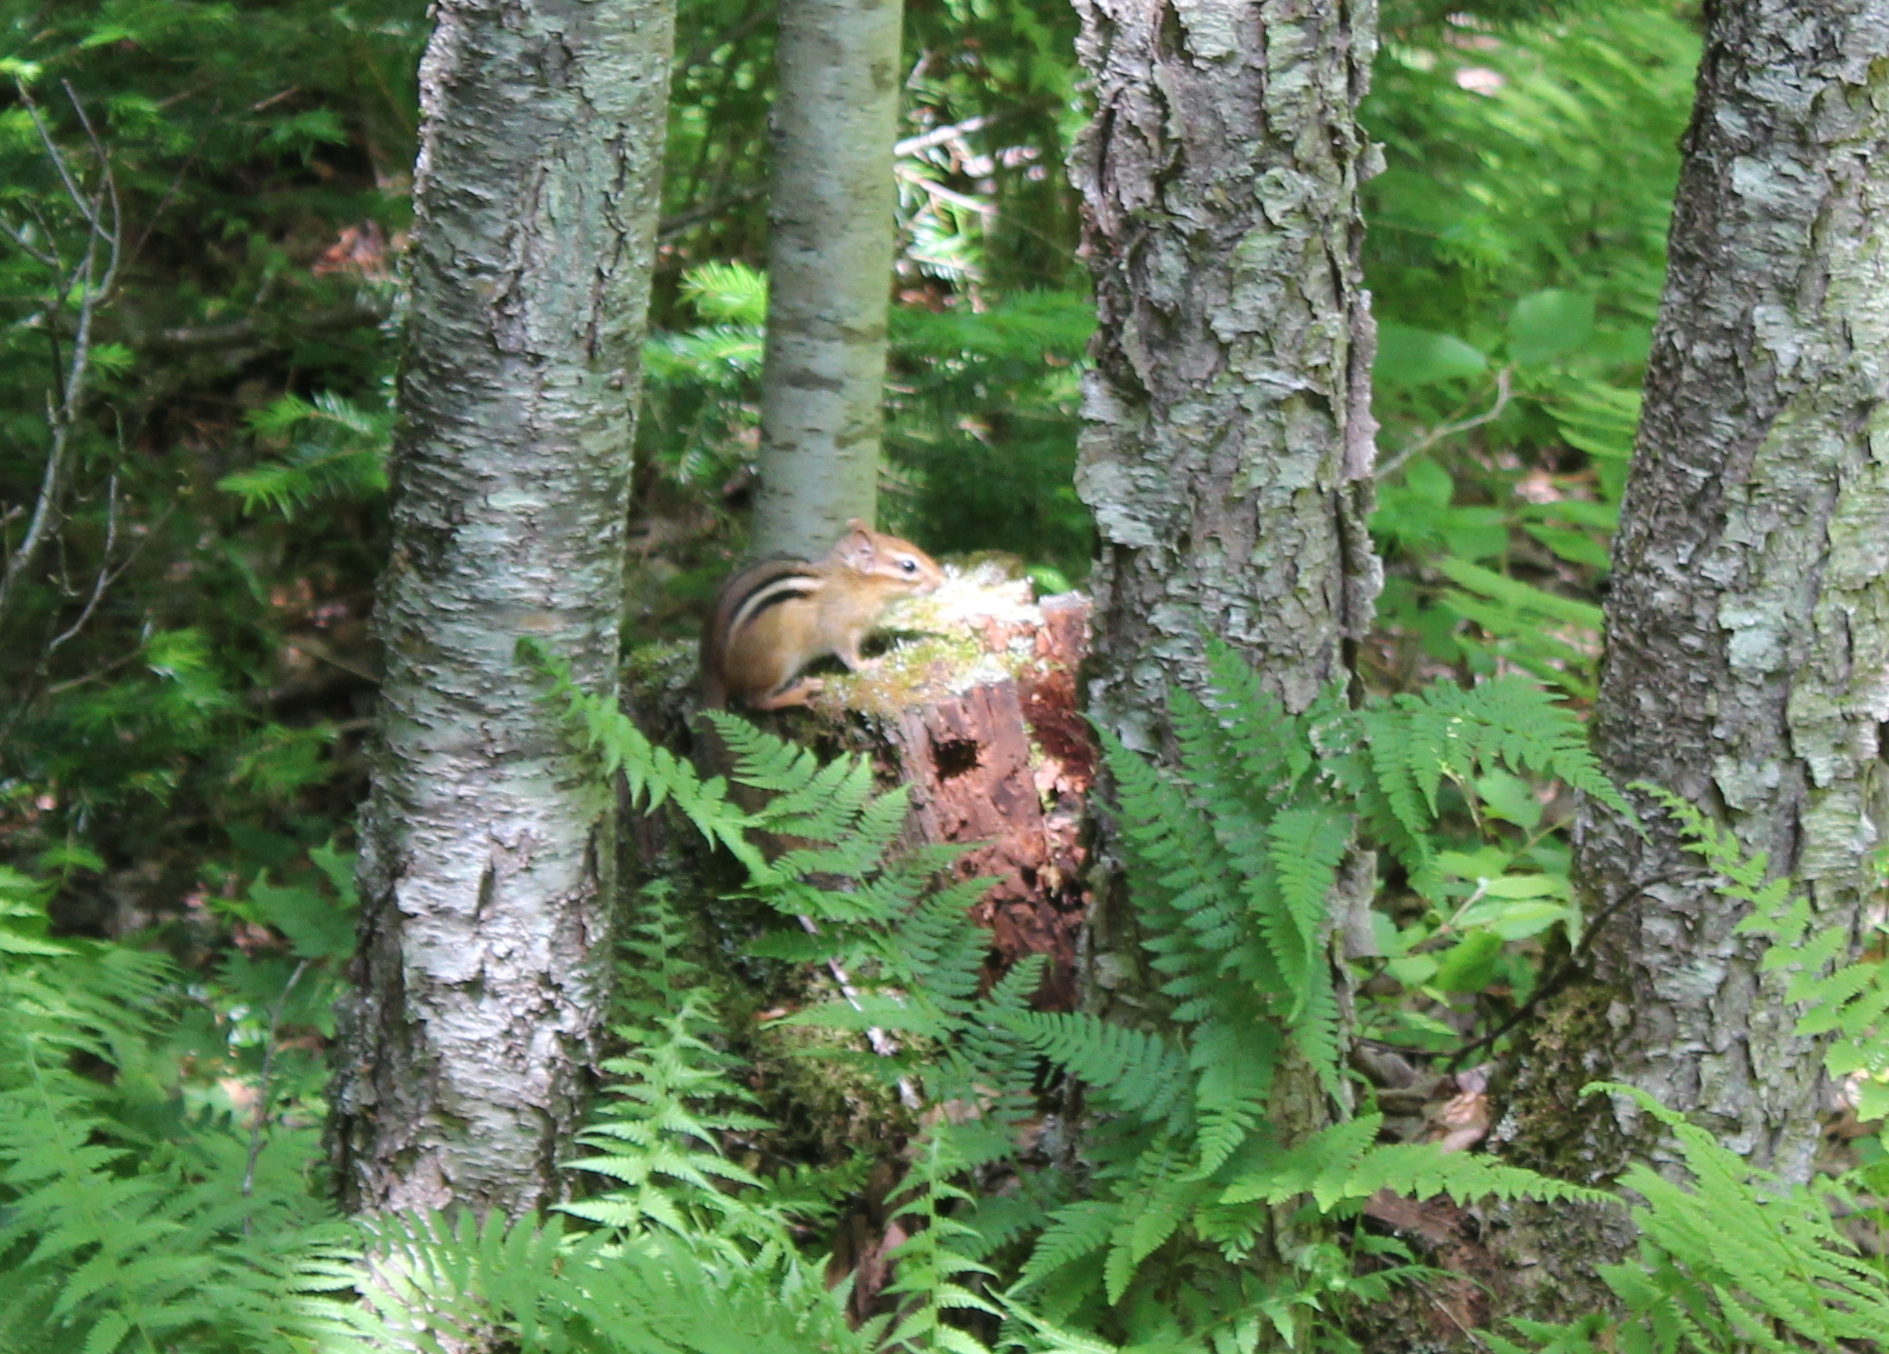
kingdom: Animalia
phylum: Chordata
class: Mammalia
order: Rodentia
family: Sciuridae
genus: Tamias
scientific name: Tamias striatus
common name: Eastern chipmunk
